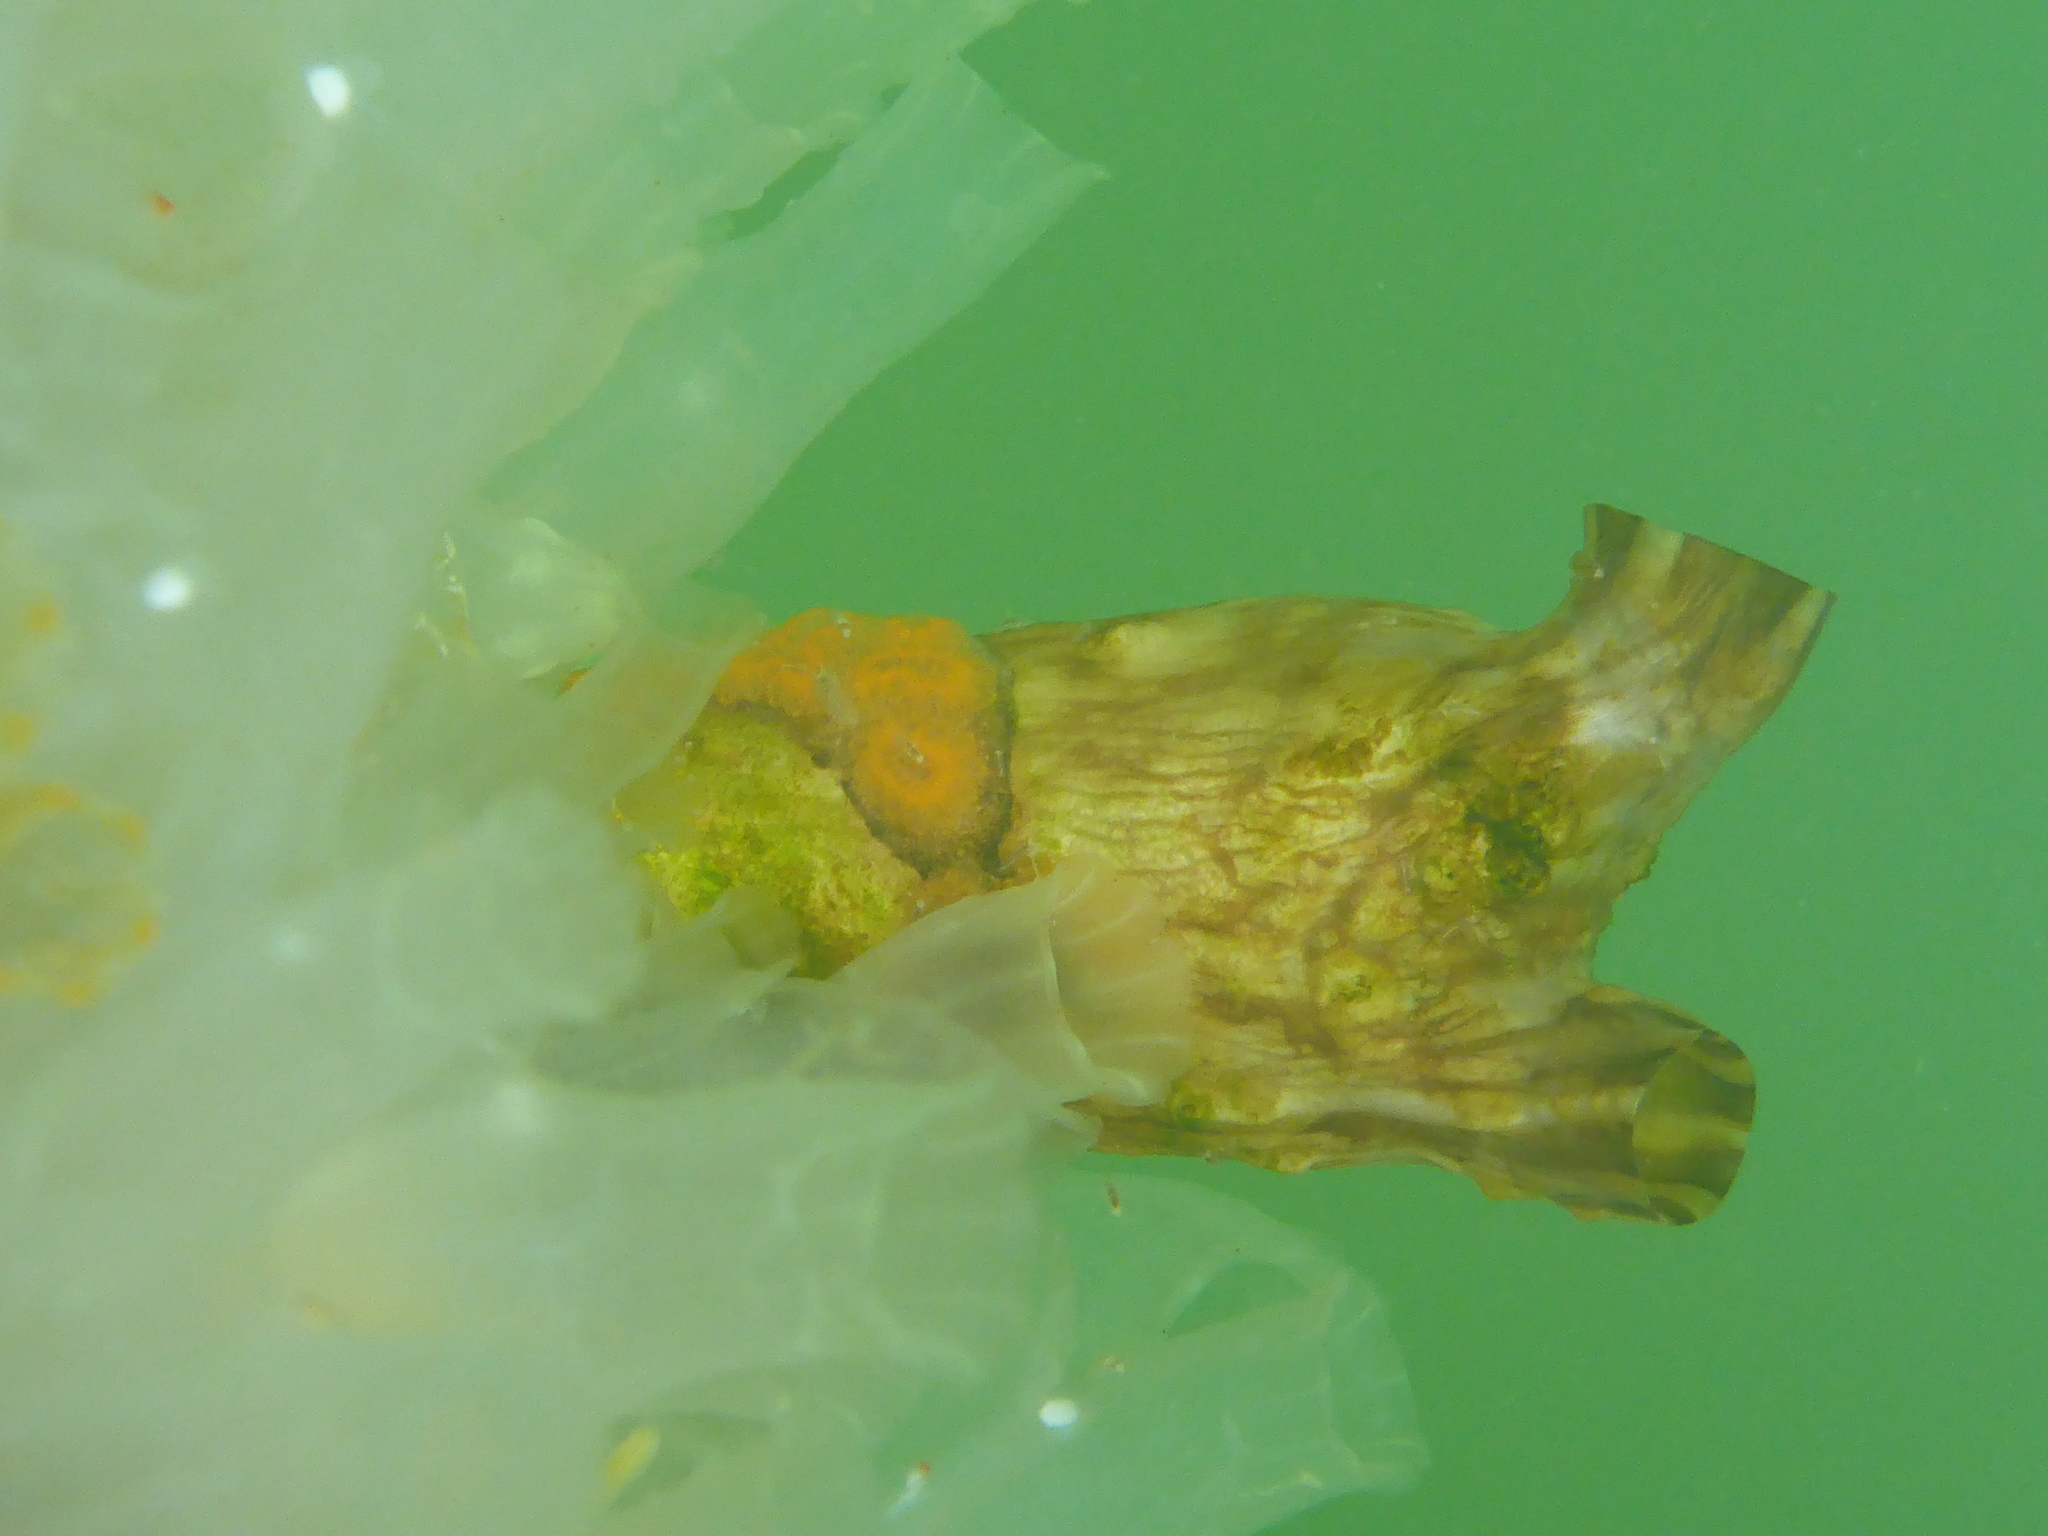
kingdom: Animalia
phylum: Chordata
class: Ascidiacea
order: Stolidobranchia
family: Styelidae
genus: Styela
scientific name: Styela clava
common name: Leathery sea squirt
